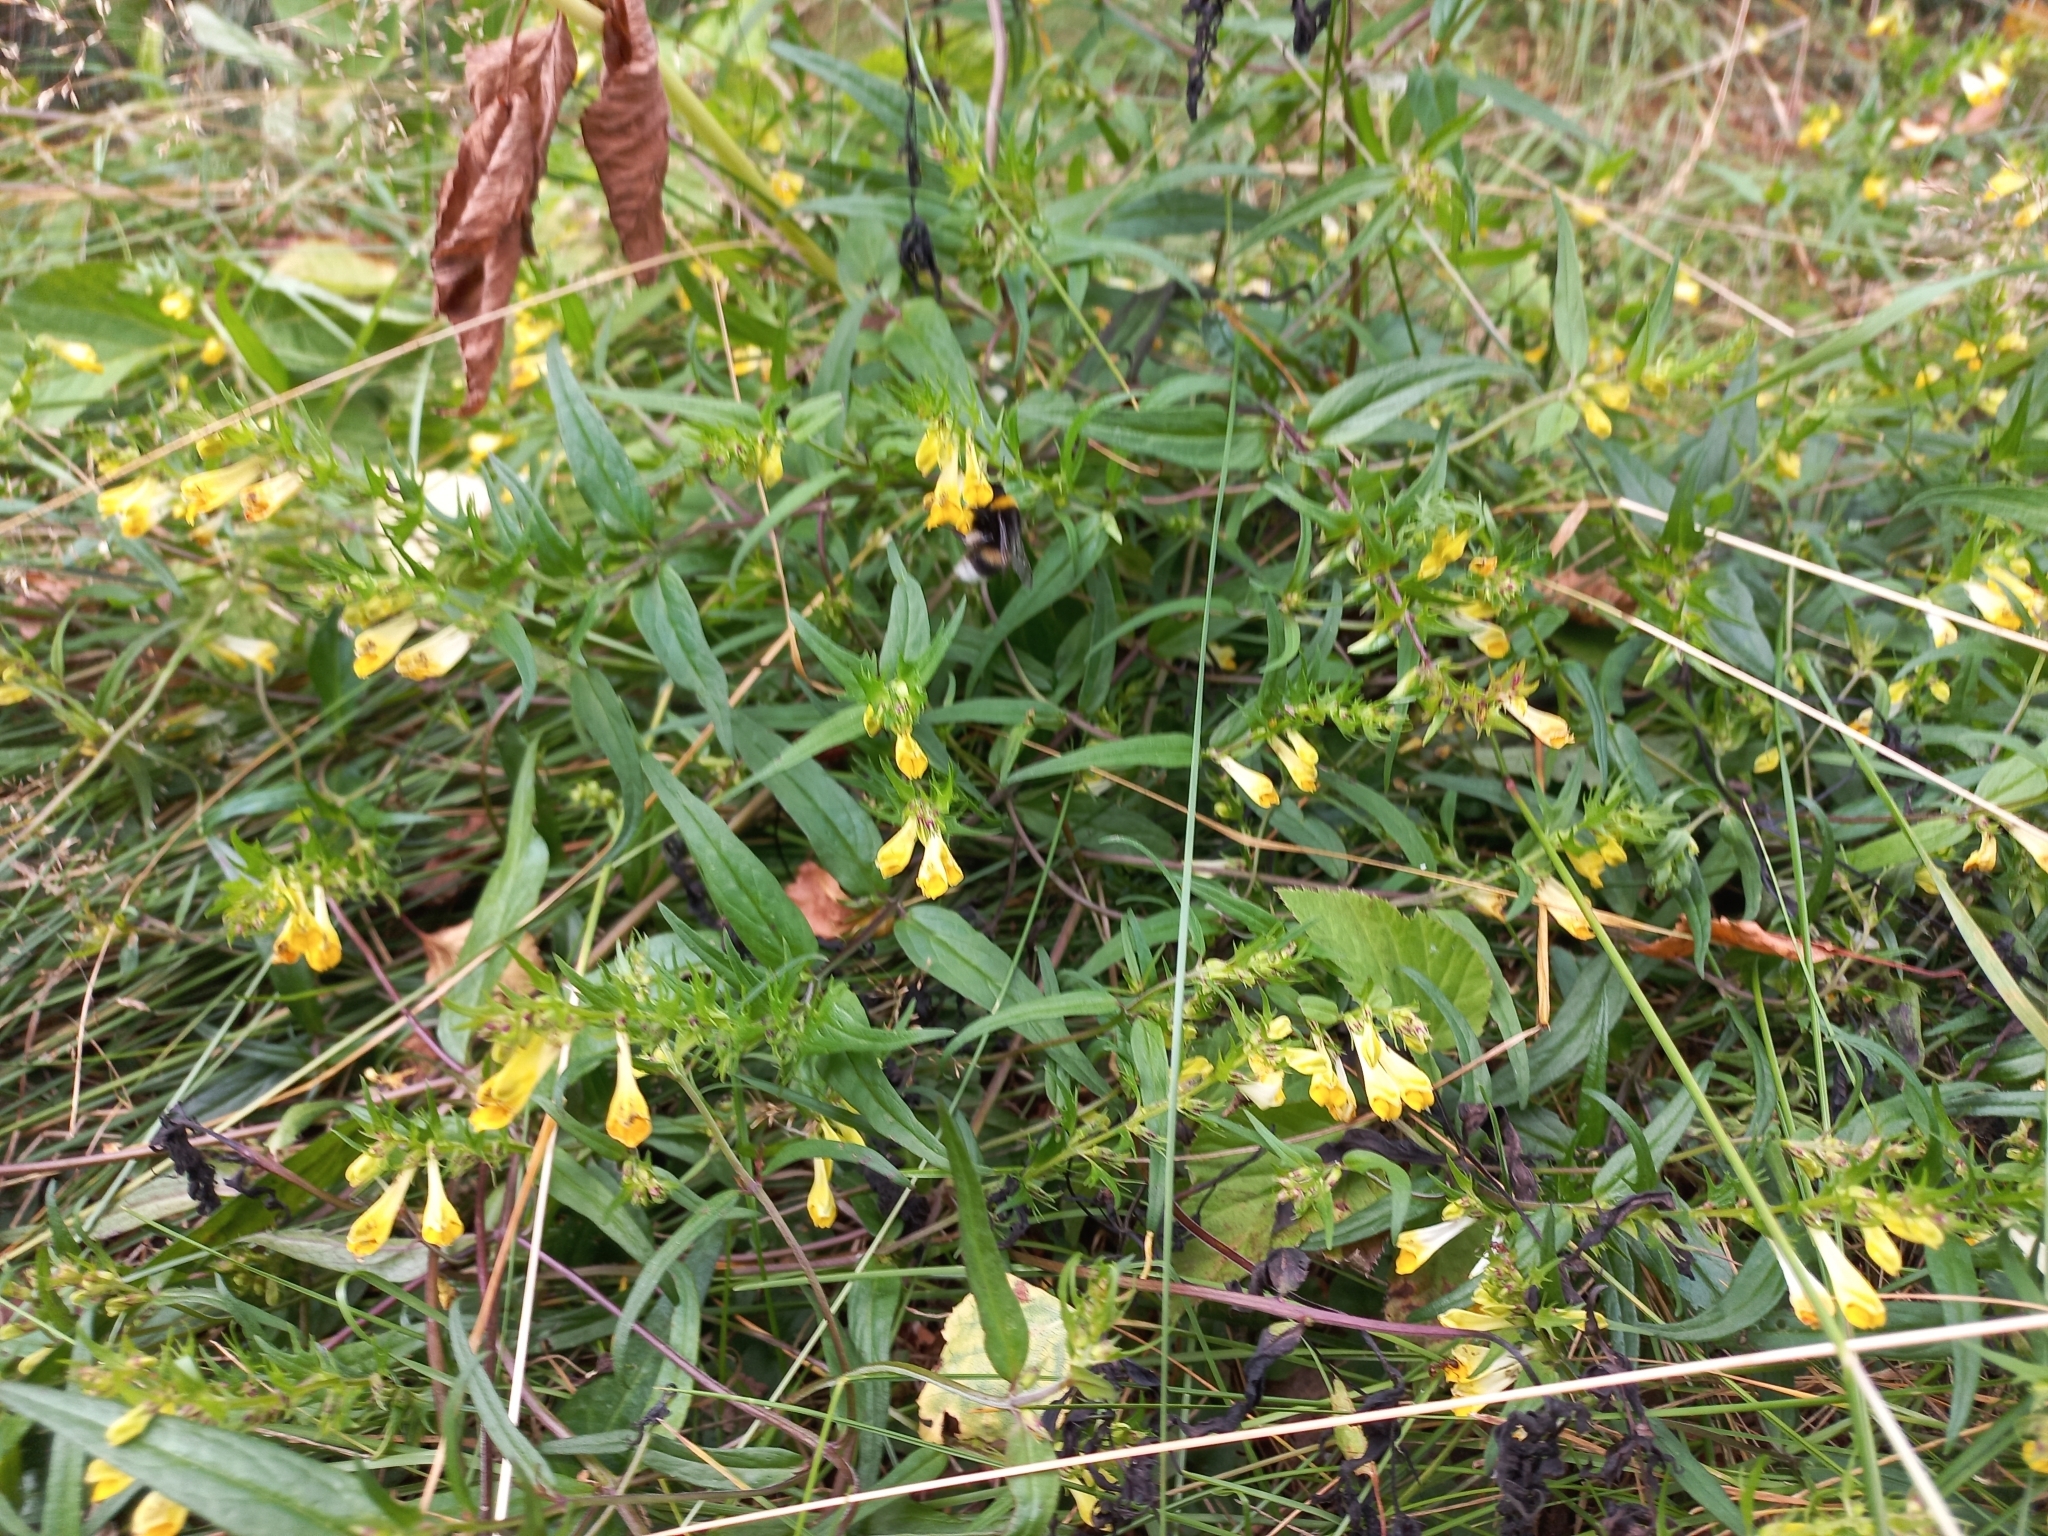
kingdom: Plantae
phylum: Tracheophyta
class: Magnoliopsida
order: Lamiales
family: Orobanchaceae
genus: Melampyrum
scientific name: Melampyrum pratense
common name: Common cow-wheat
